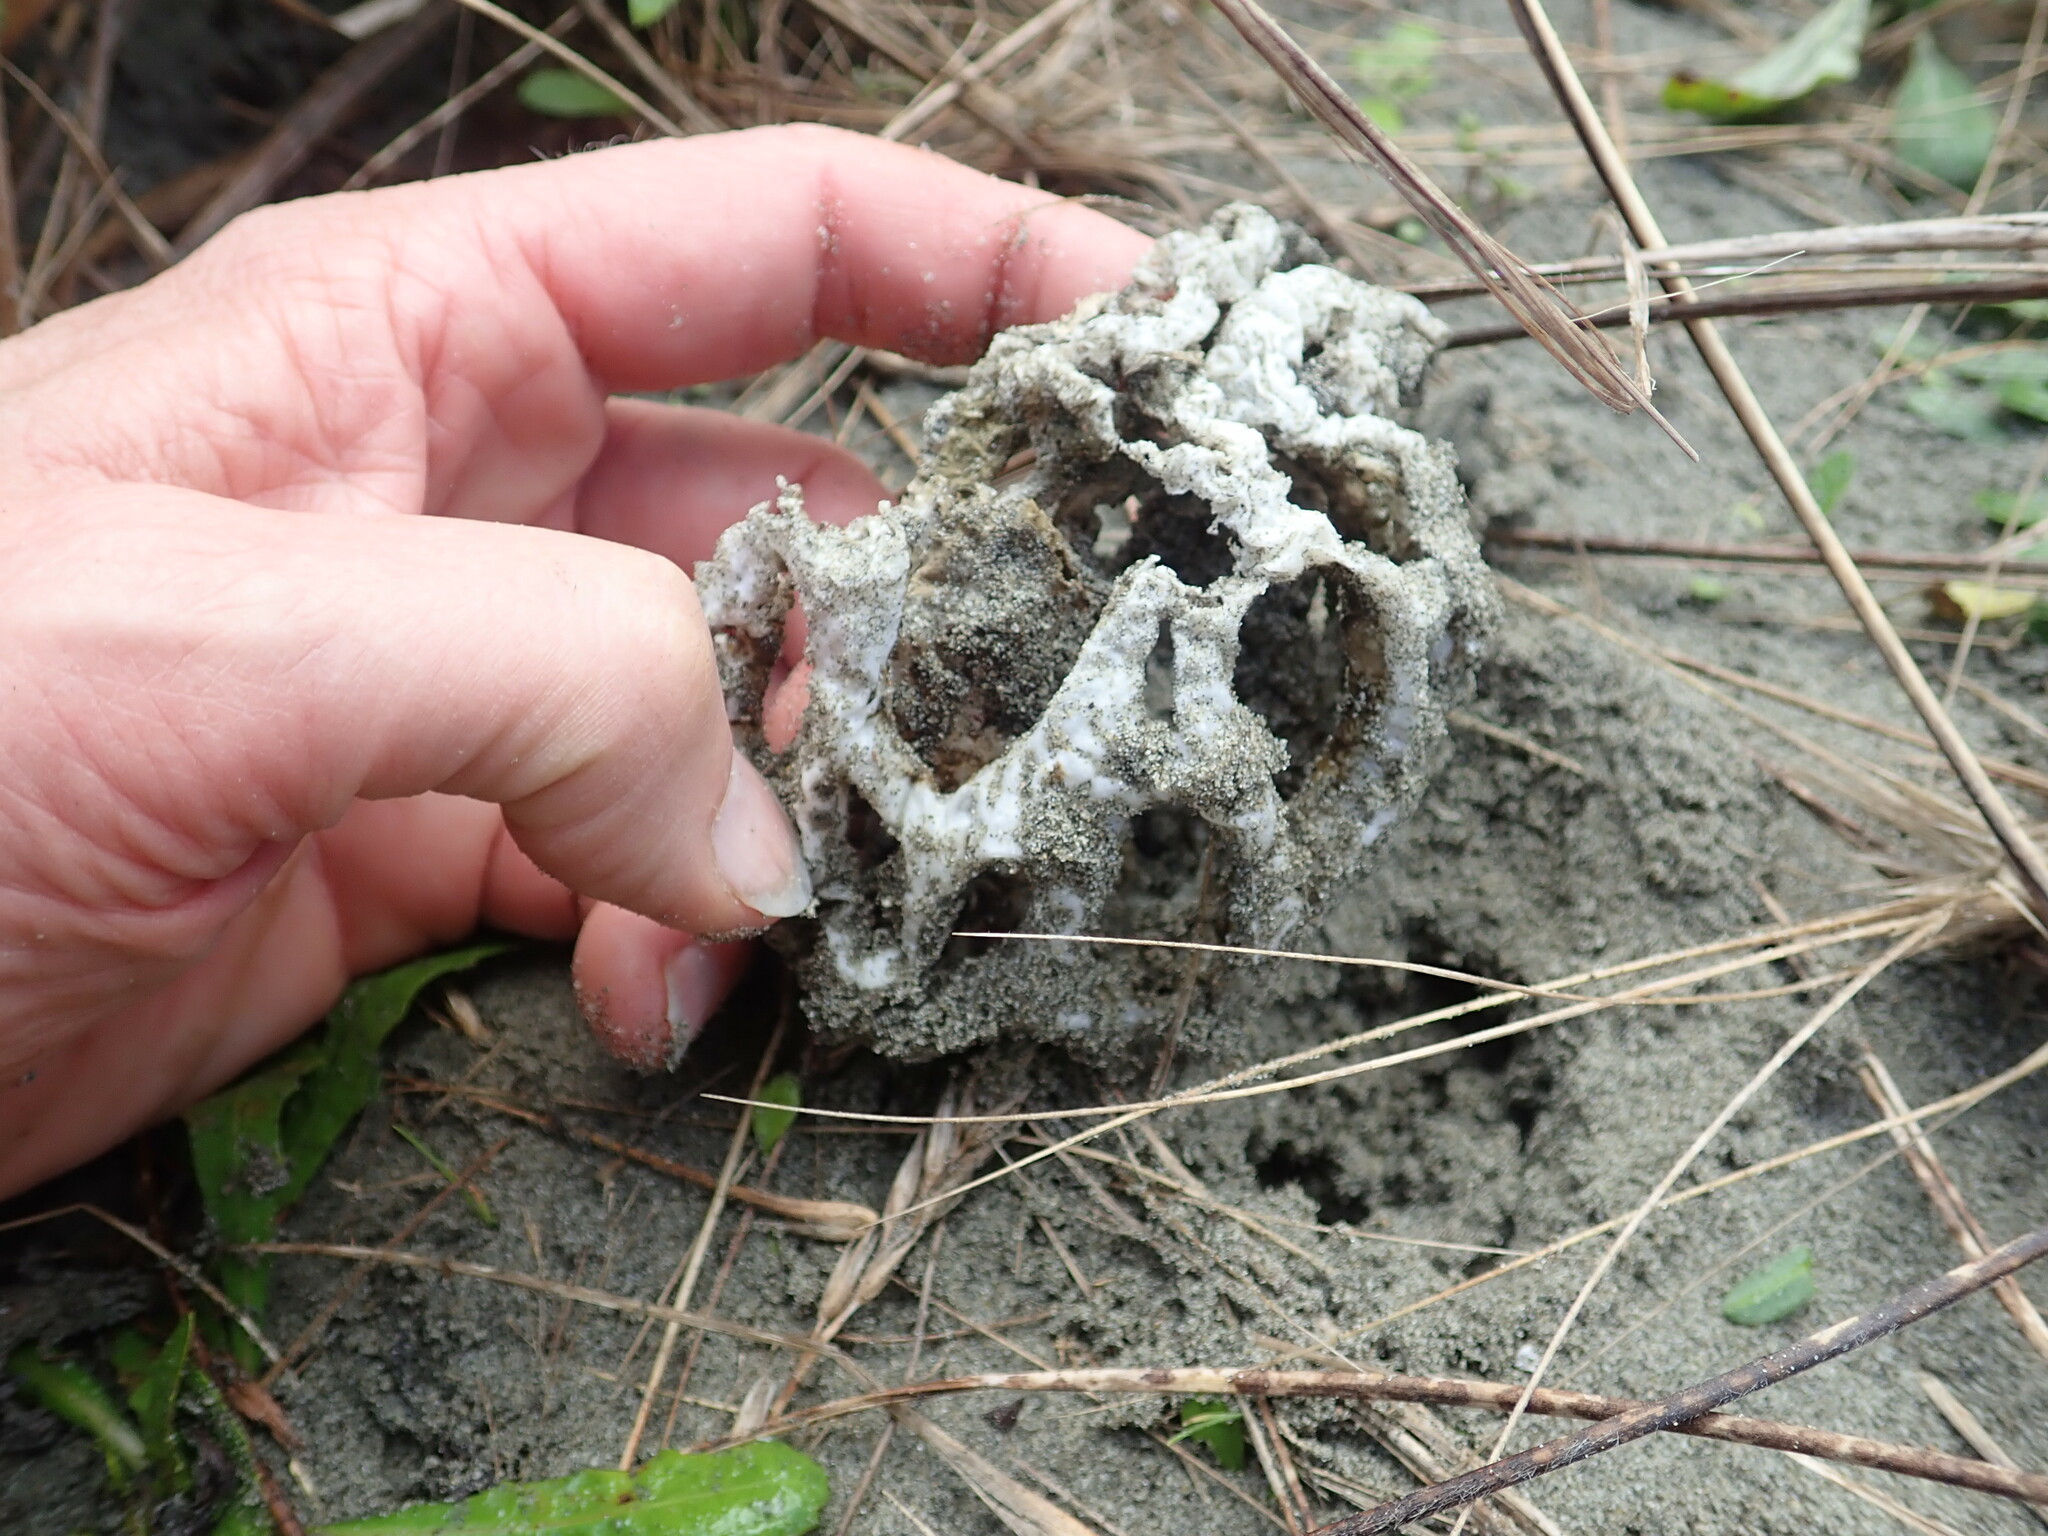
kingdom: Fungi
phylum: Basidiomycota
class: Agaricomycetes
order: Phallales
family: Phallaceae
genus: Ileodictyon
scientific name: Ileodictyon cibarium
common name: Basket fungus
